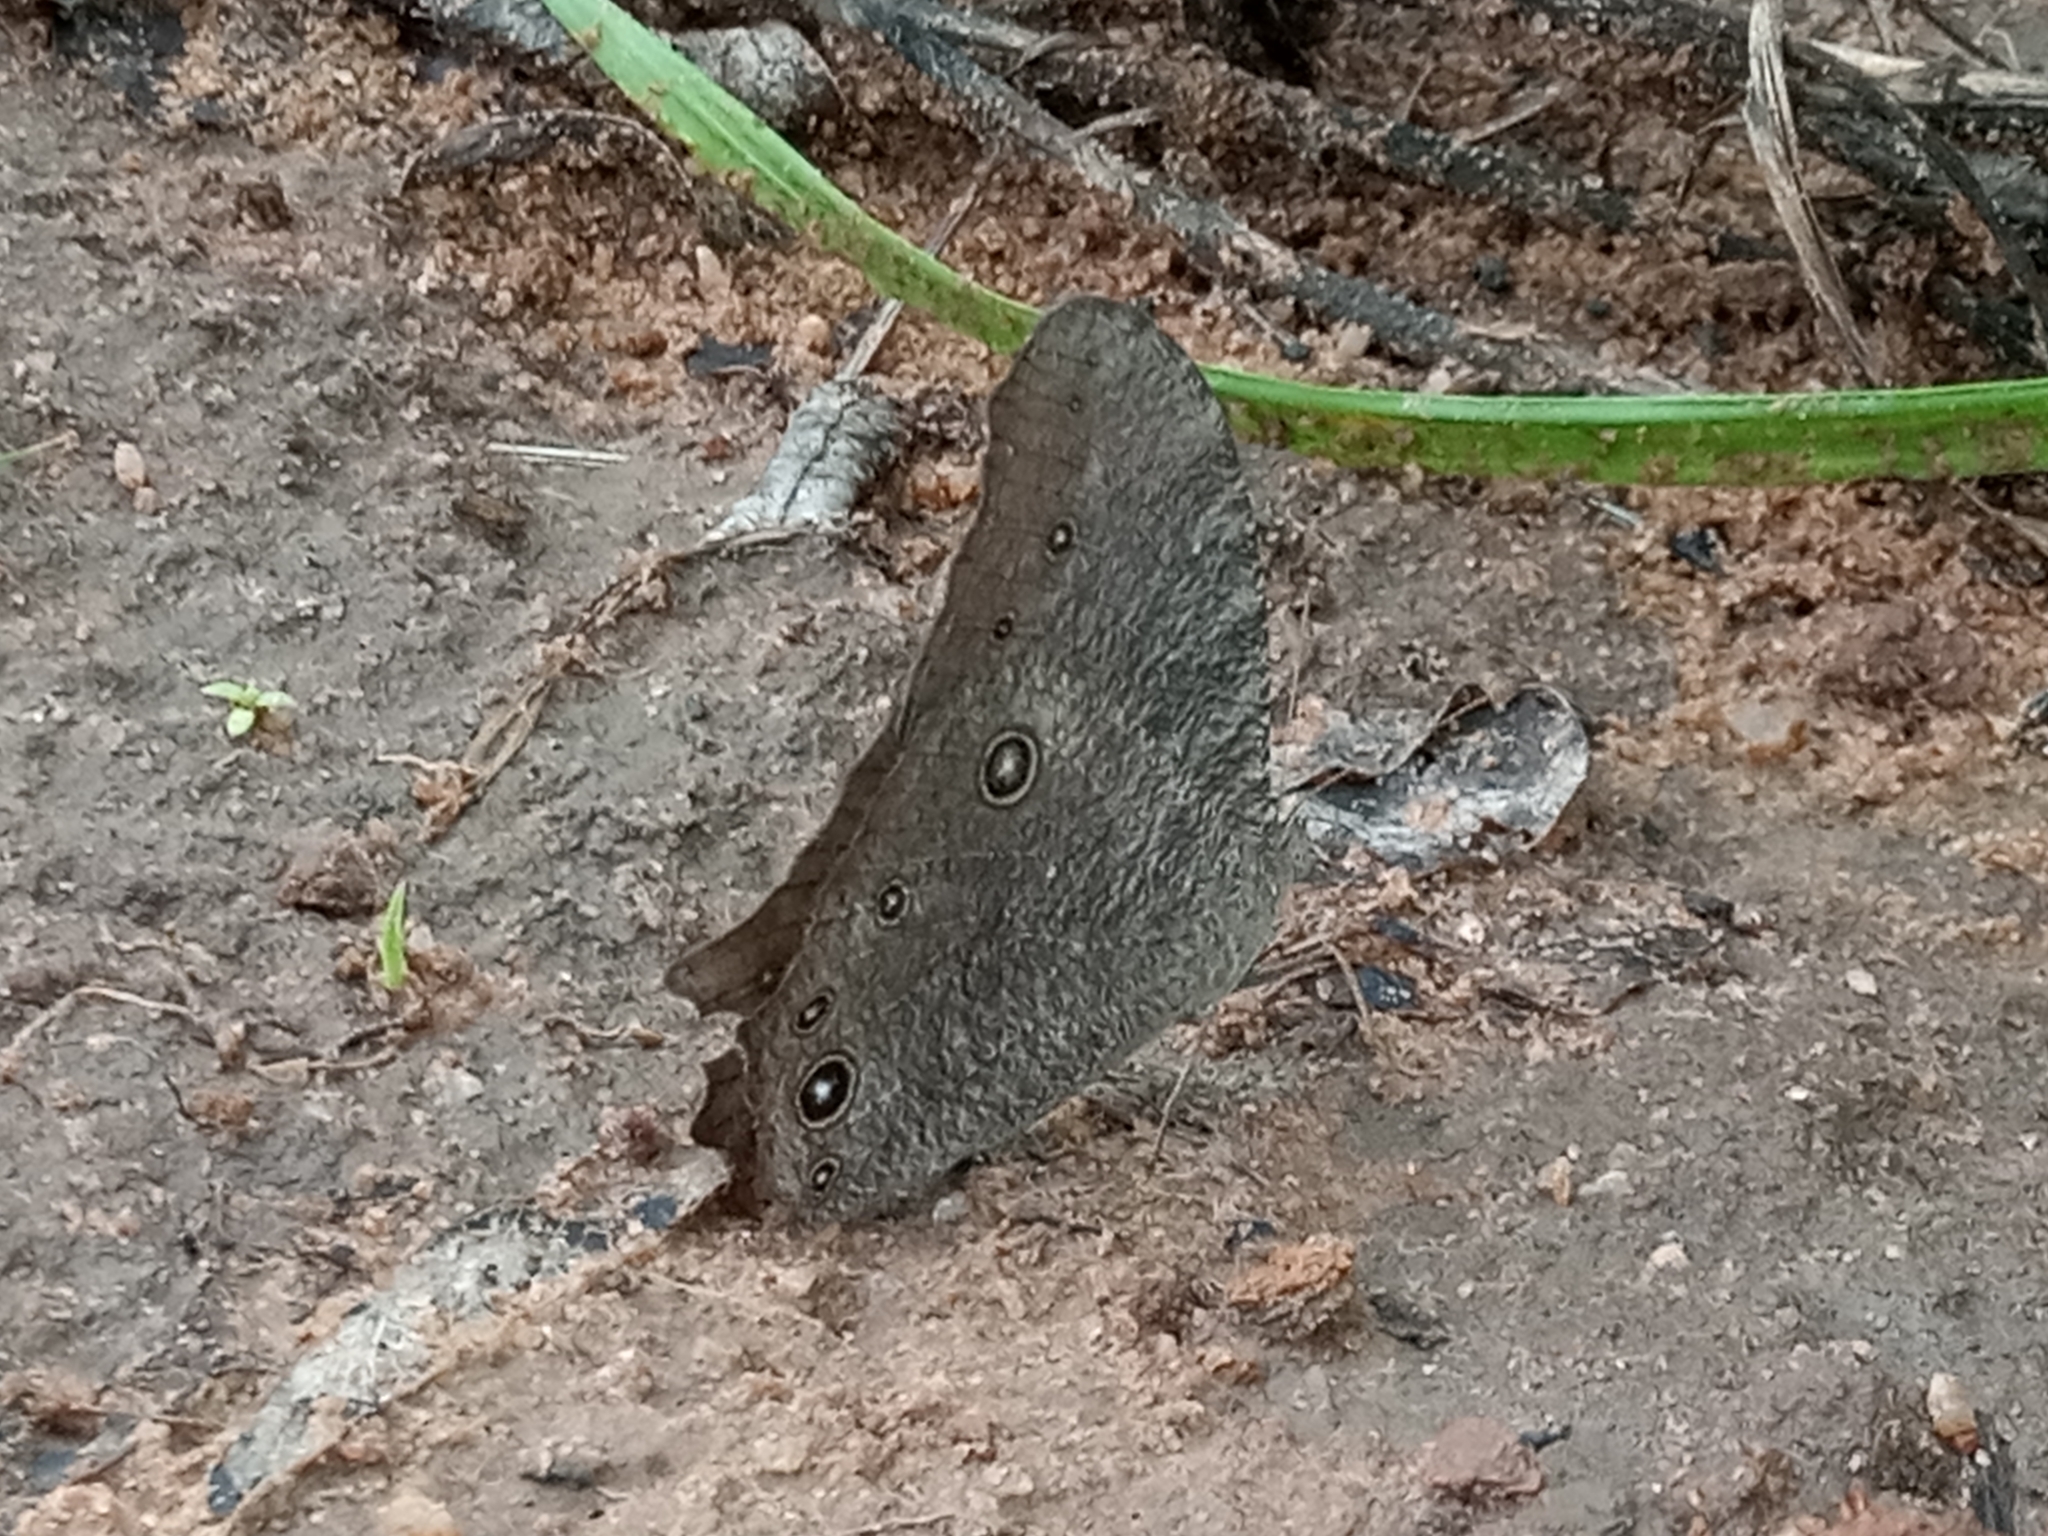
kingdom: Animalia
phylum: Arthropoda
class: Insecta
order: Lepidoptera
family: Nymphalidae
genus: Melanitis
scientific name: Melanitis leda
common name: Twilight brown
